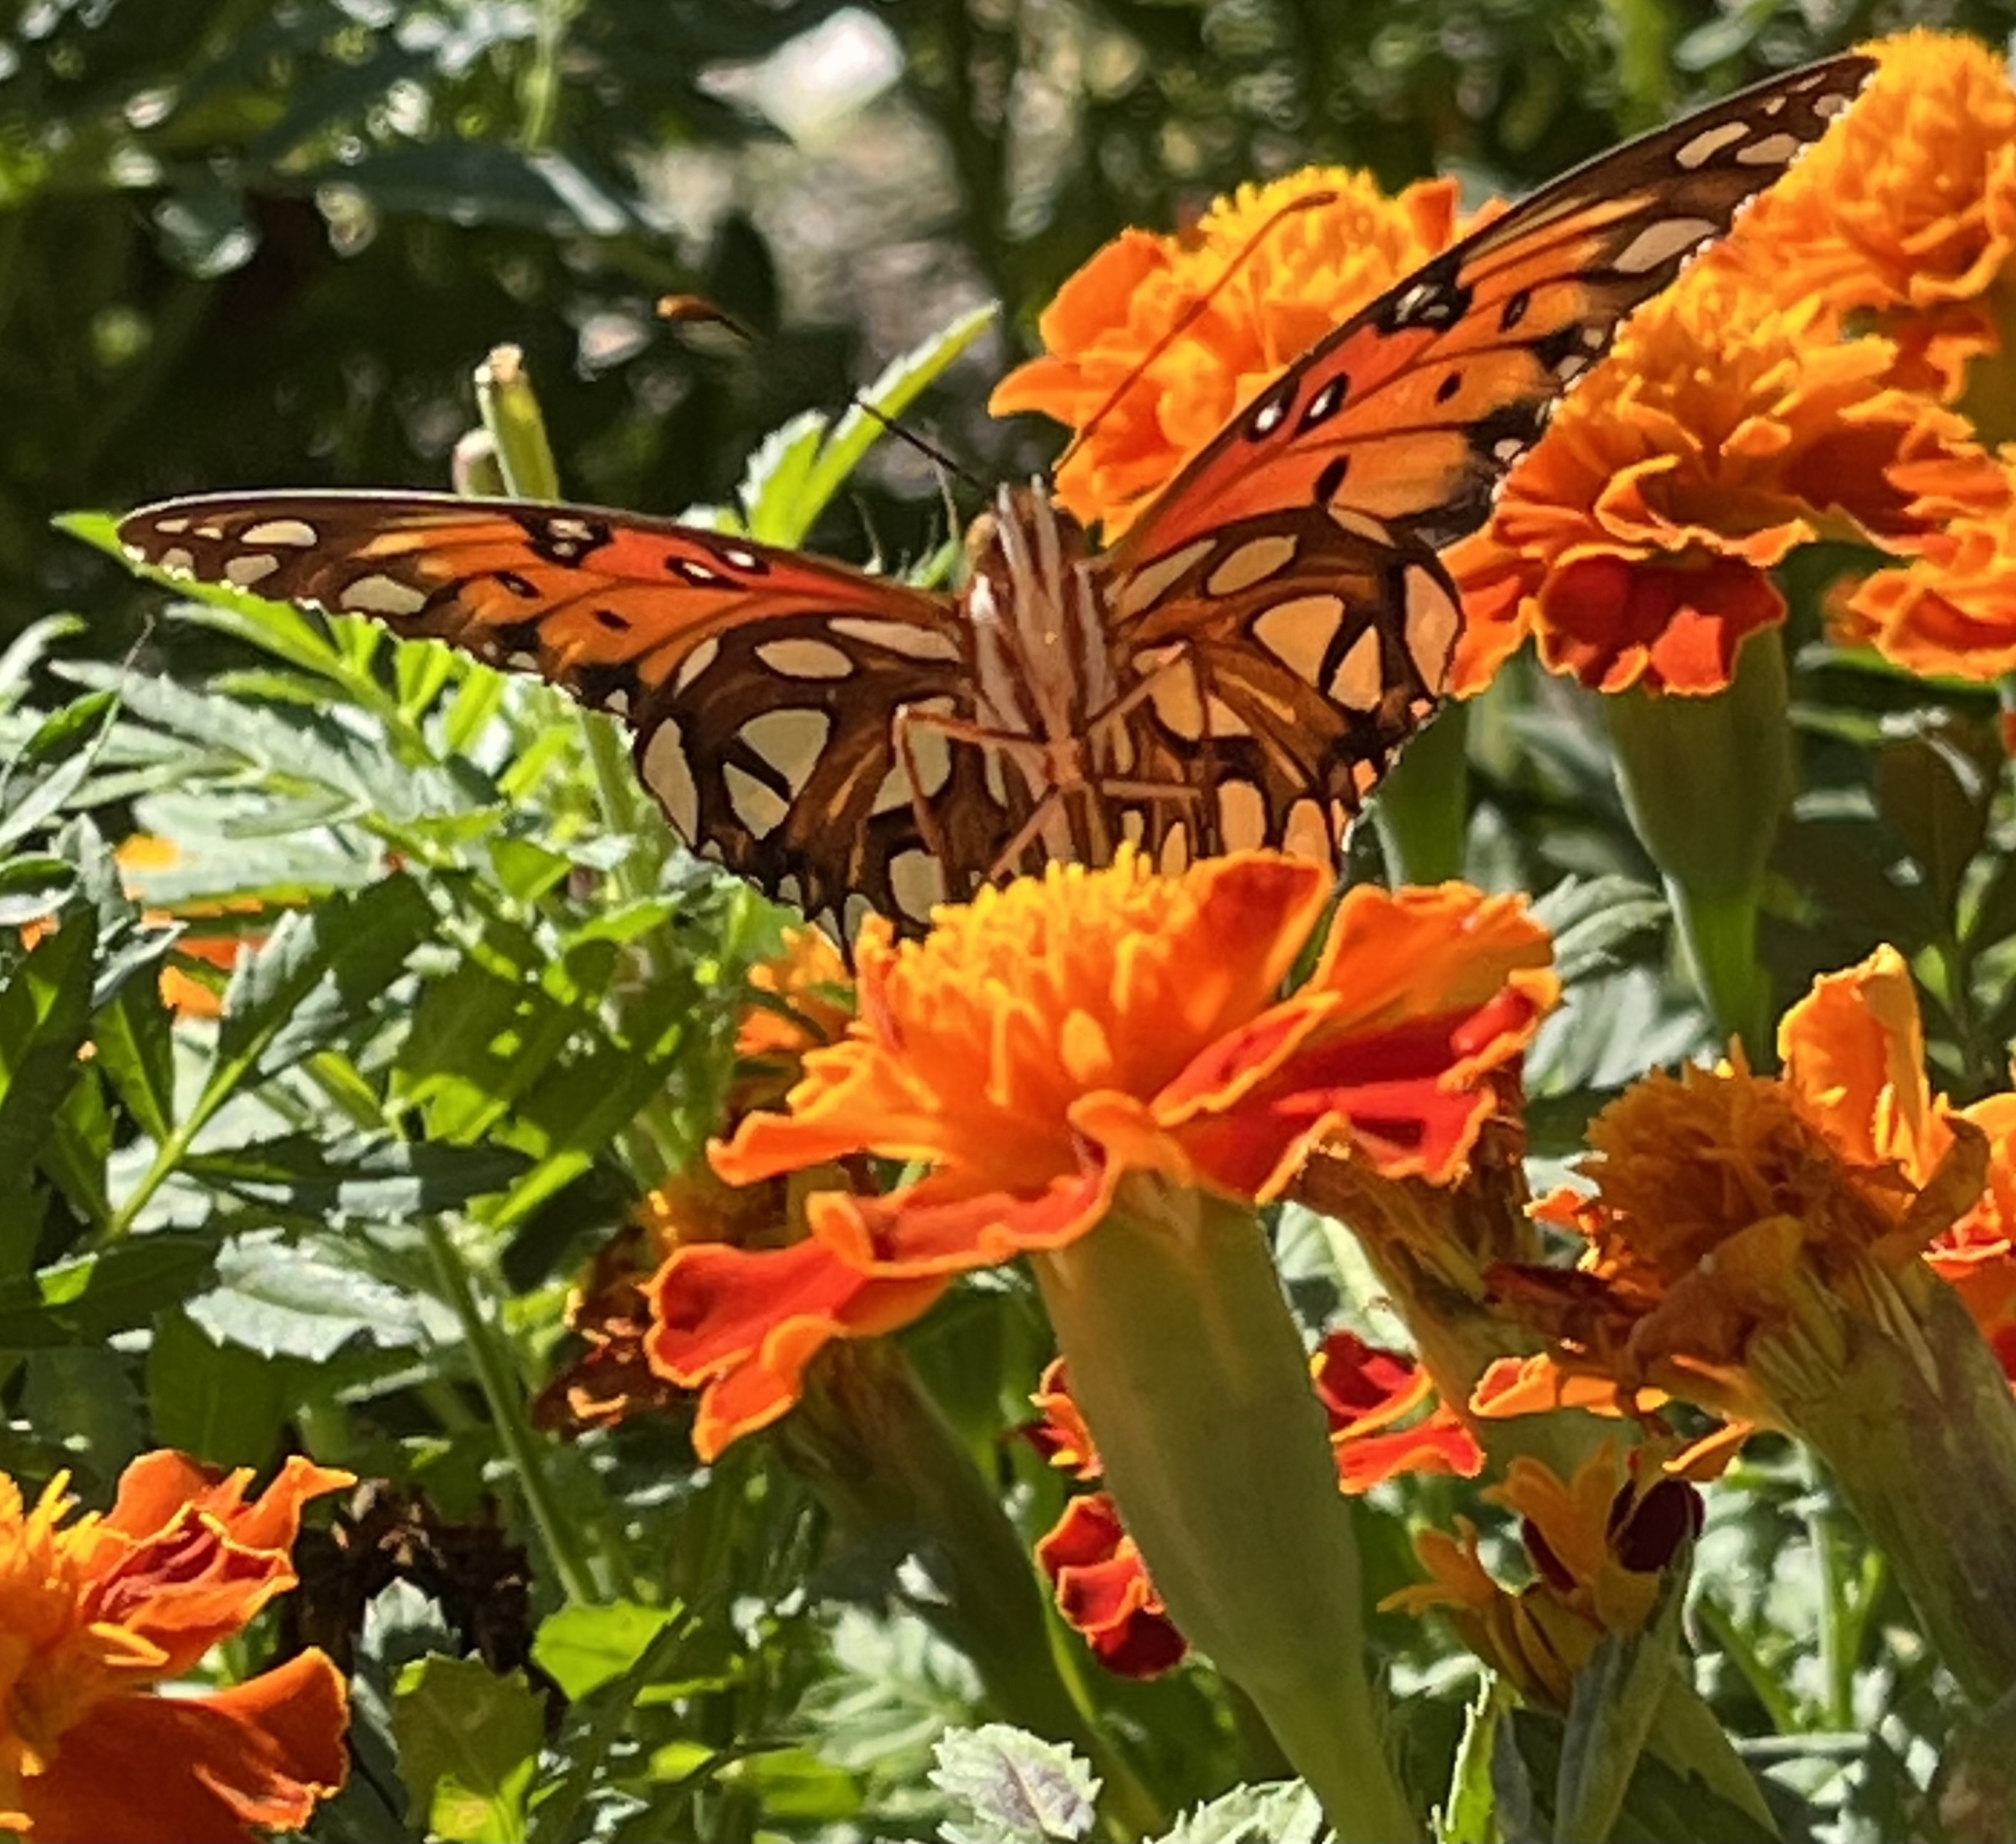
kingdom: Animalia
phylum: Arthropoda
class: Insecta
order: Lepidoptera
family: Nymphalidae
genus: Dione
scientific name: Dione vanillae
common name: Gulf fritillary
